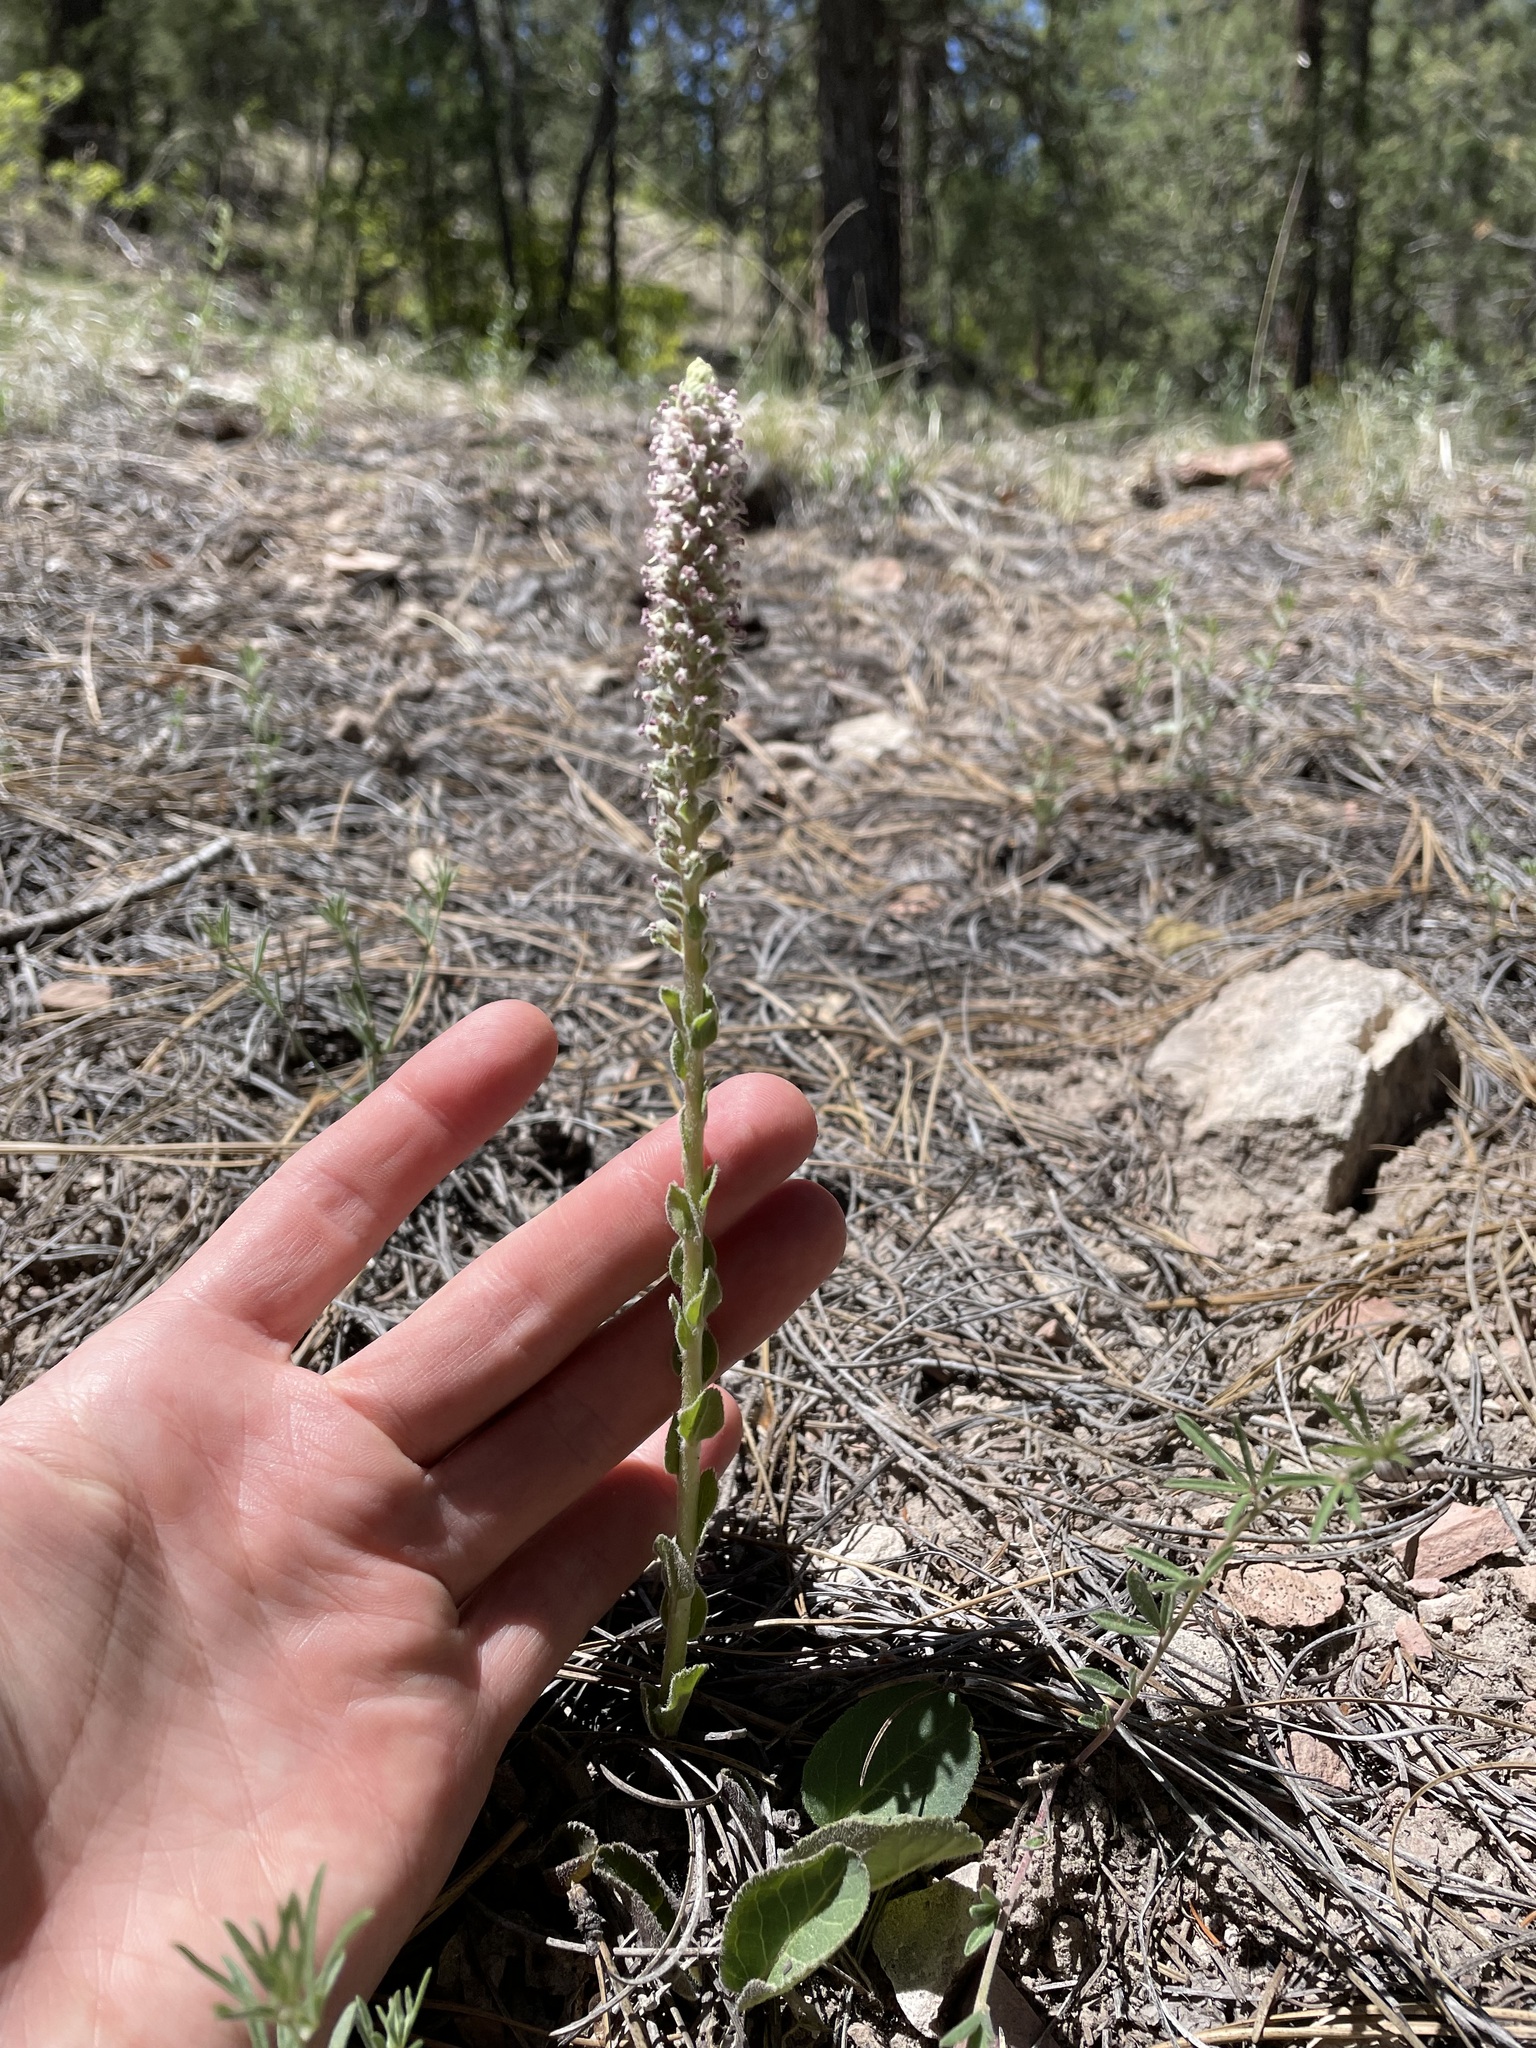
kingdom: Plantae
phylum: Tracheophyta
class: Magnoliopsida
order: Lamiales
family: Plantaginaceae
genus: Veronica
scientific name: Veronica plantaginea
